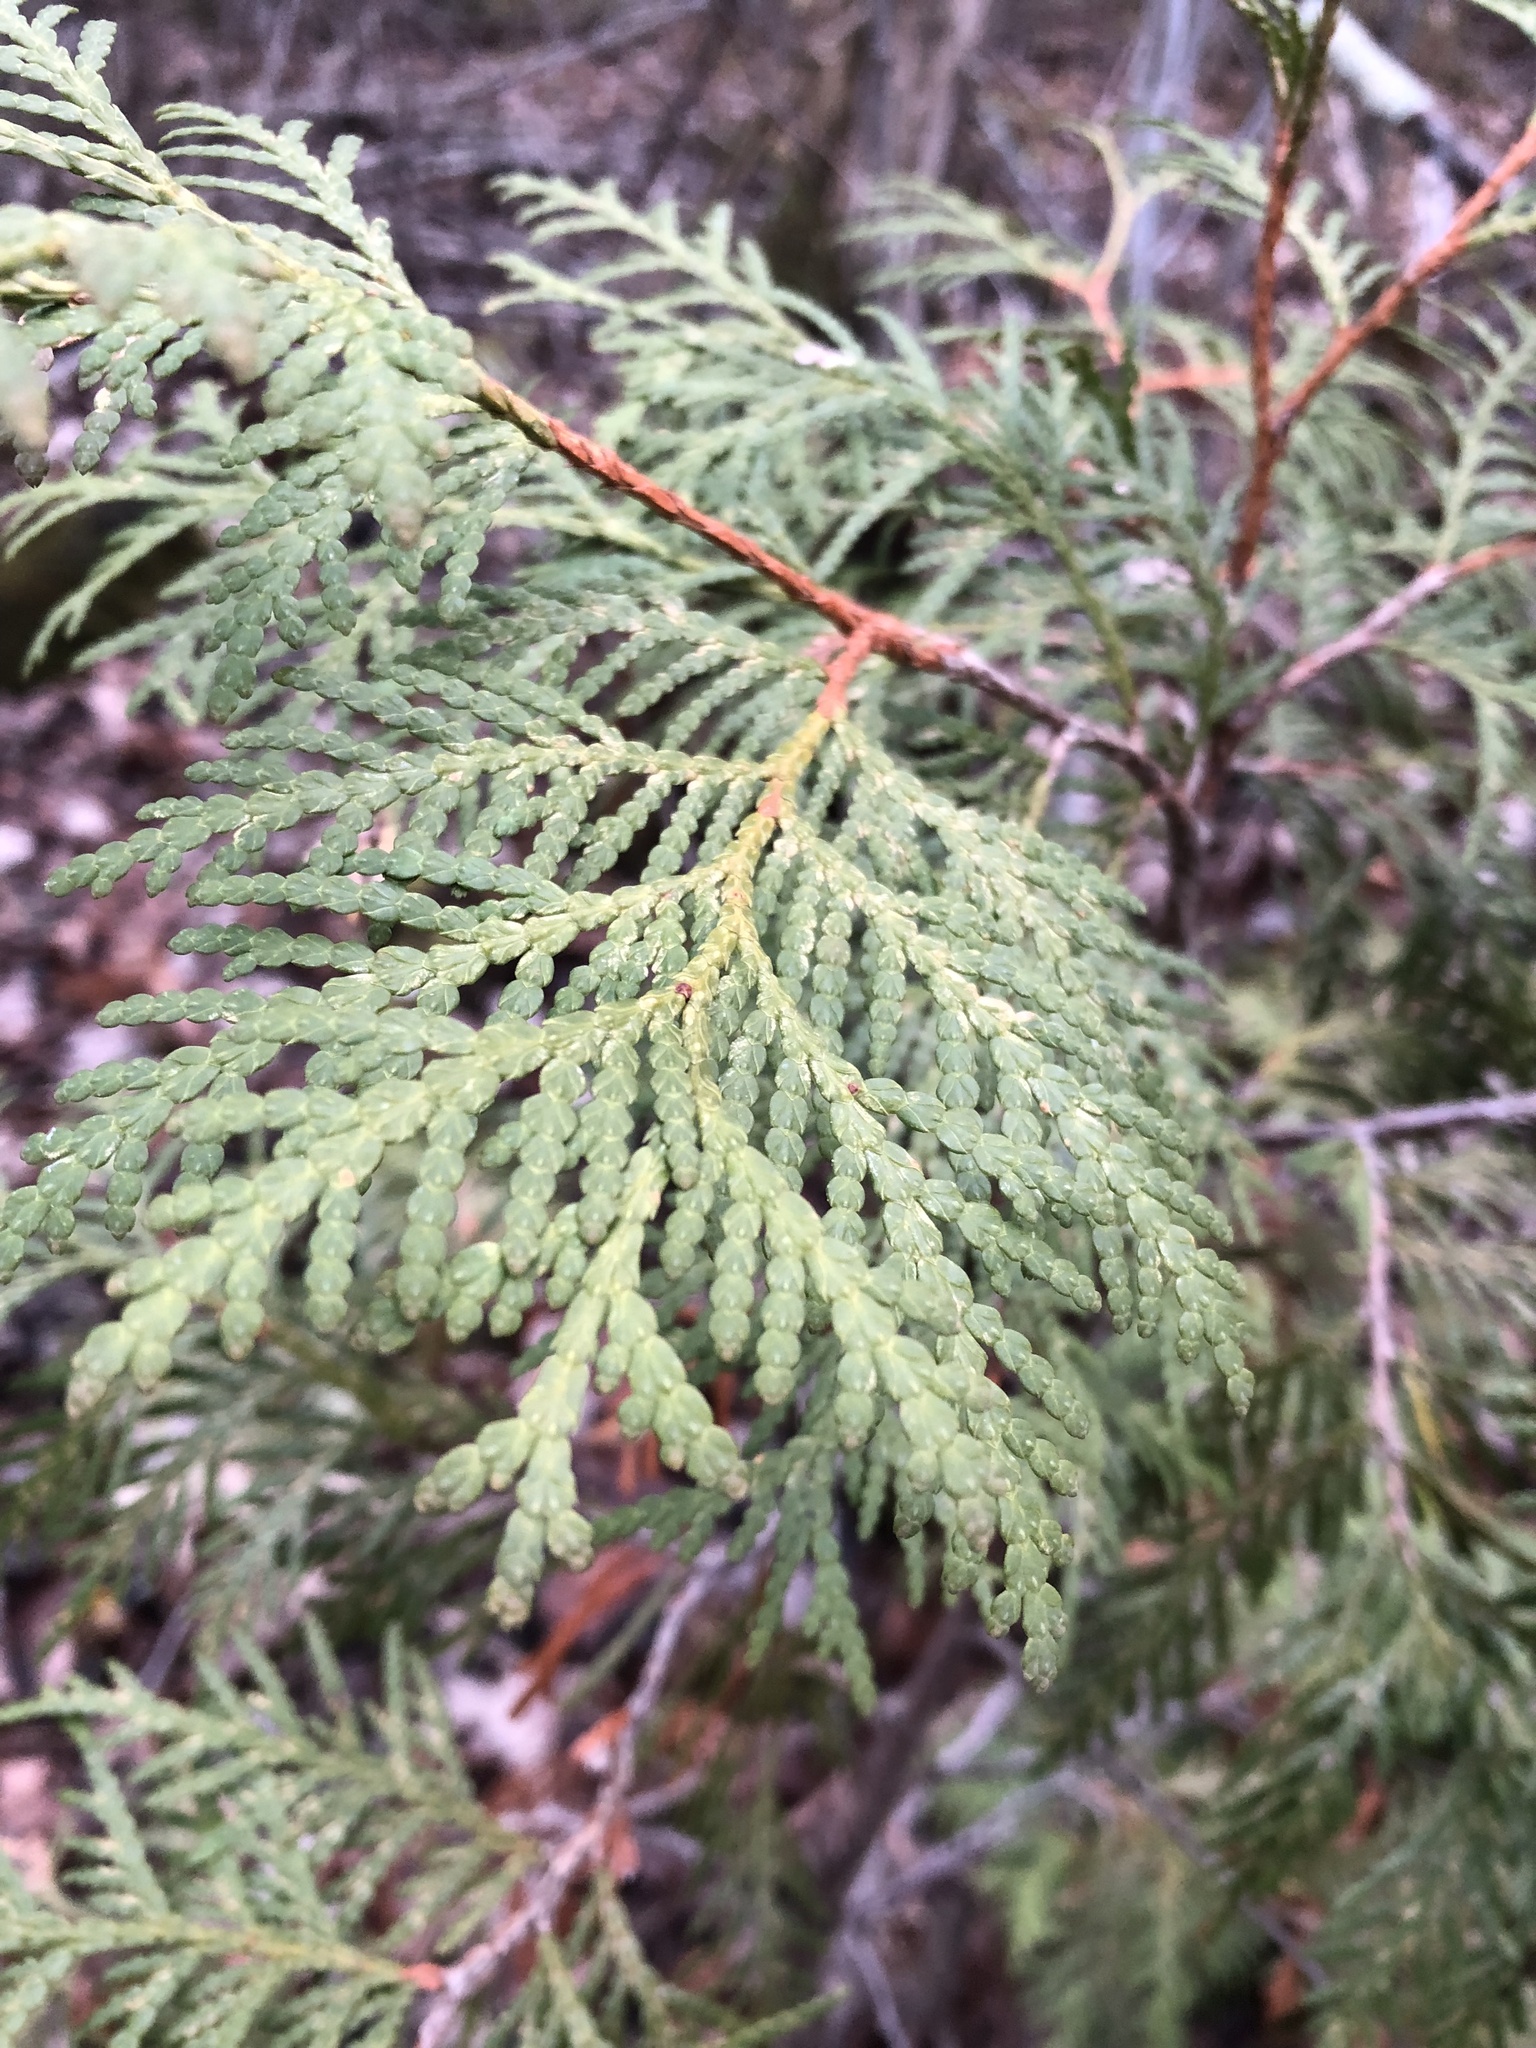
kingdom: Plantae
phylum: Tracheophyta
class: Pinopsida
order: Pinales
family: Cupressaceae
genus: Thuja
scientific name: Thuja occidentalis
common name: Northern white-cedar
